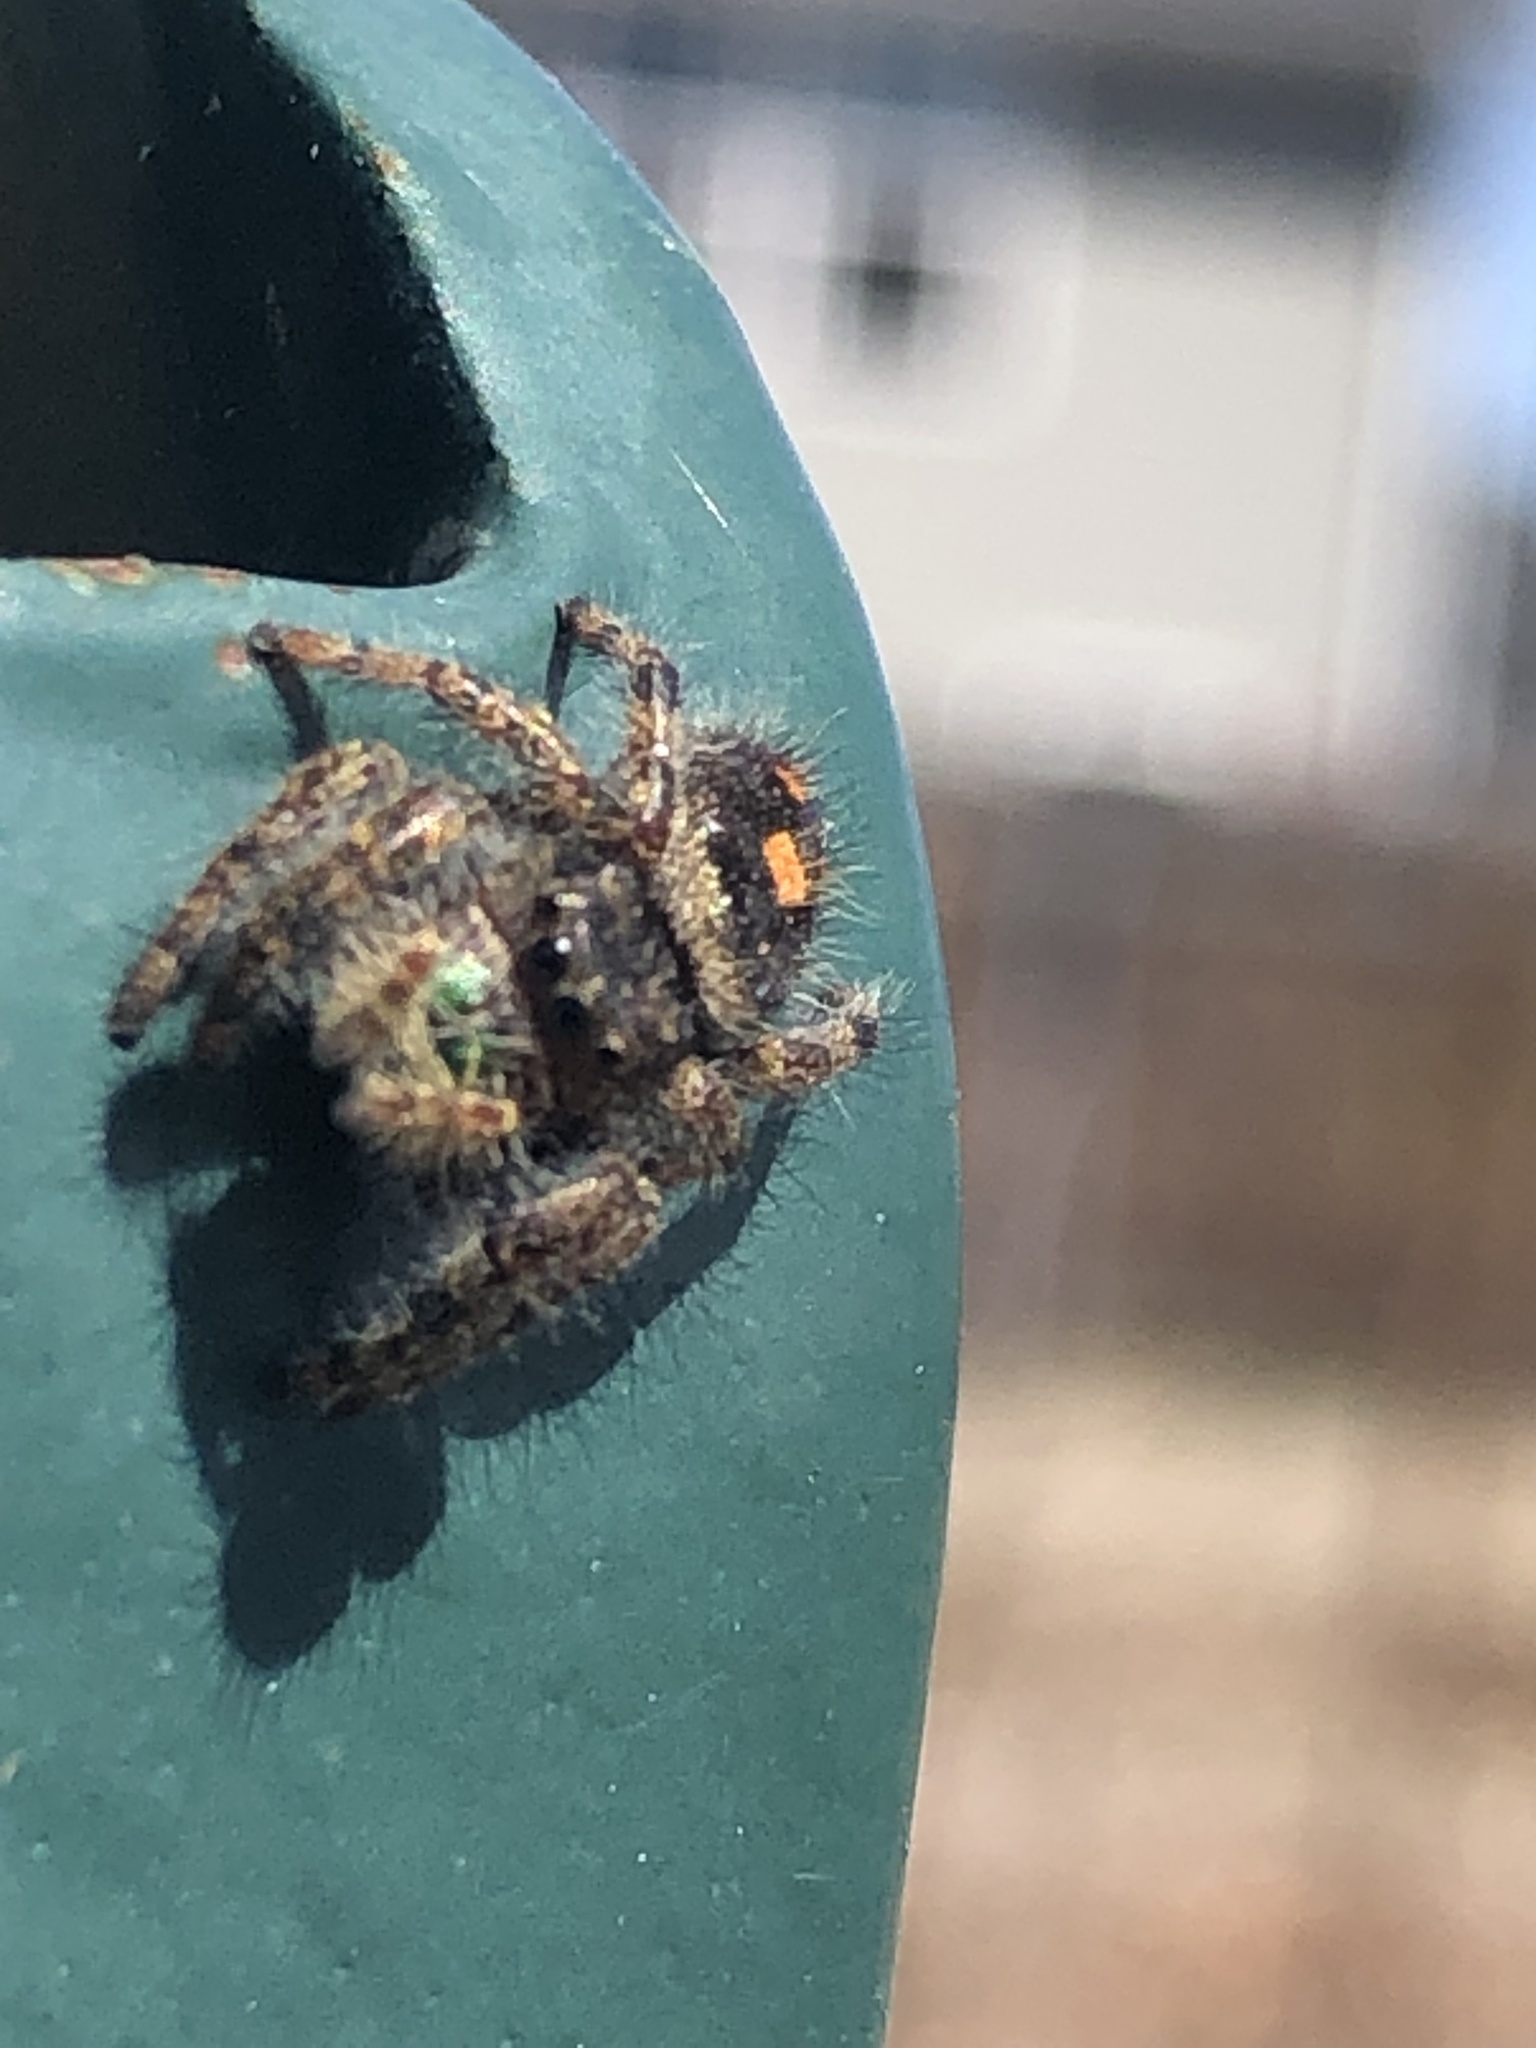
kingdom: Animalia
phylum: Arthropoda
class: Arachnida
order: Araneae
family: Salticidae
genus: Phidippus
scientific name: Phidippus audax
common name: Bold jumper
